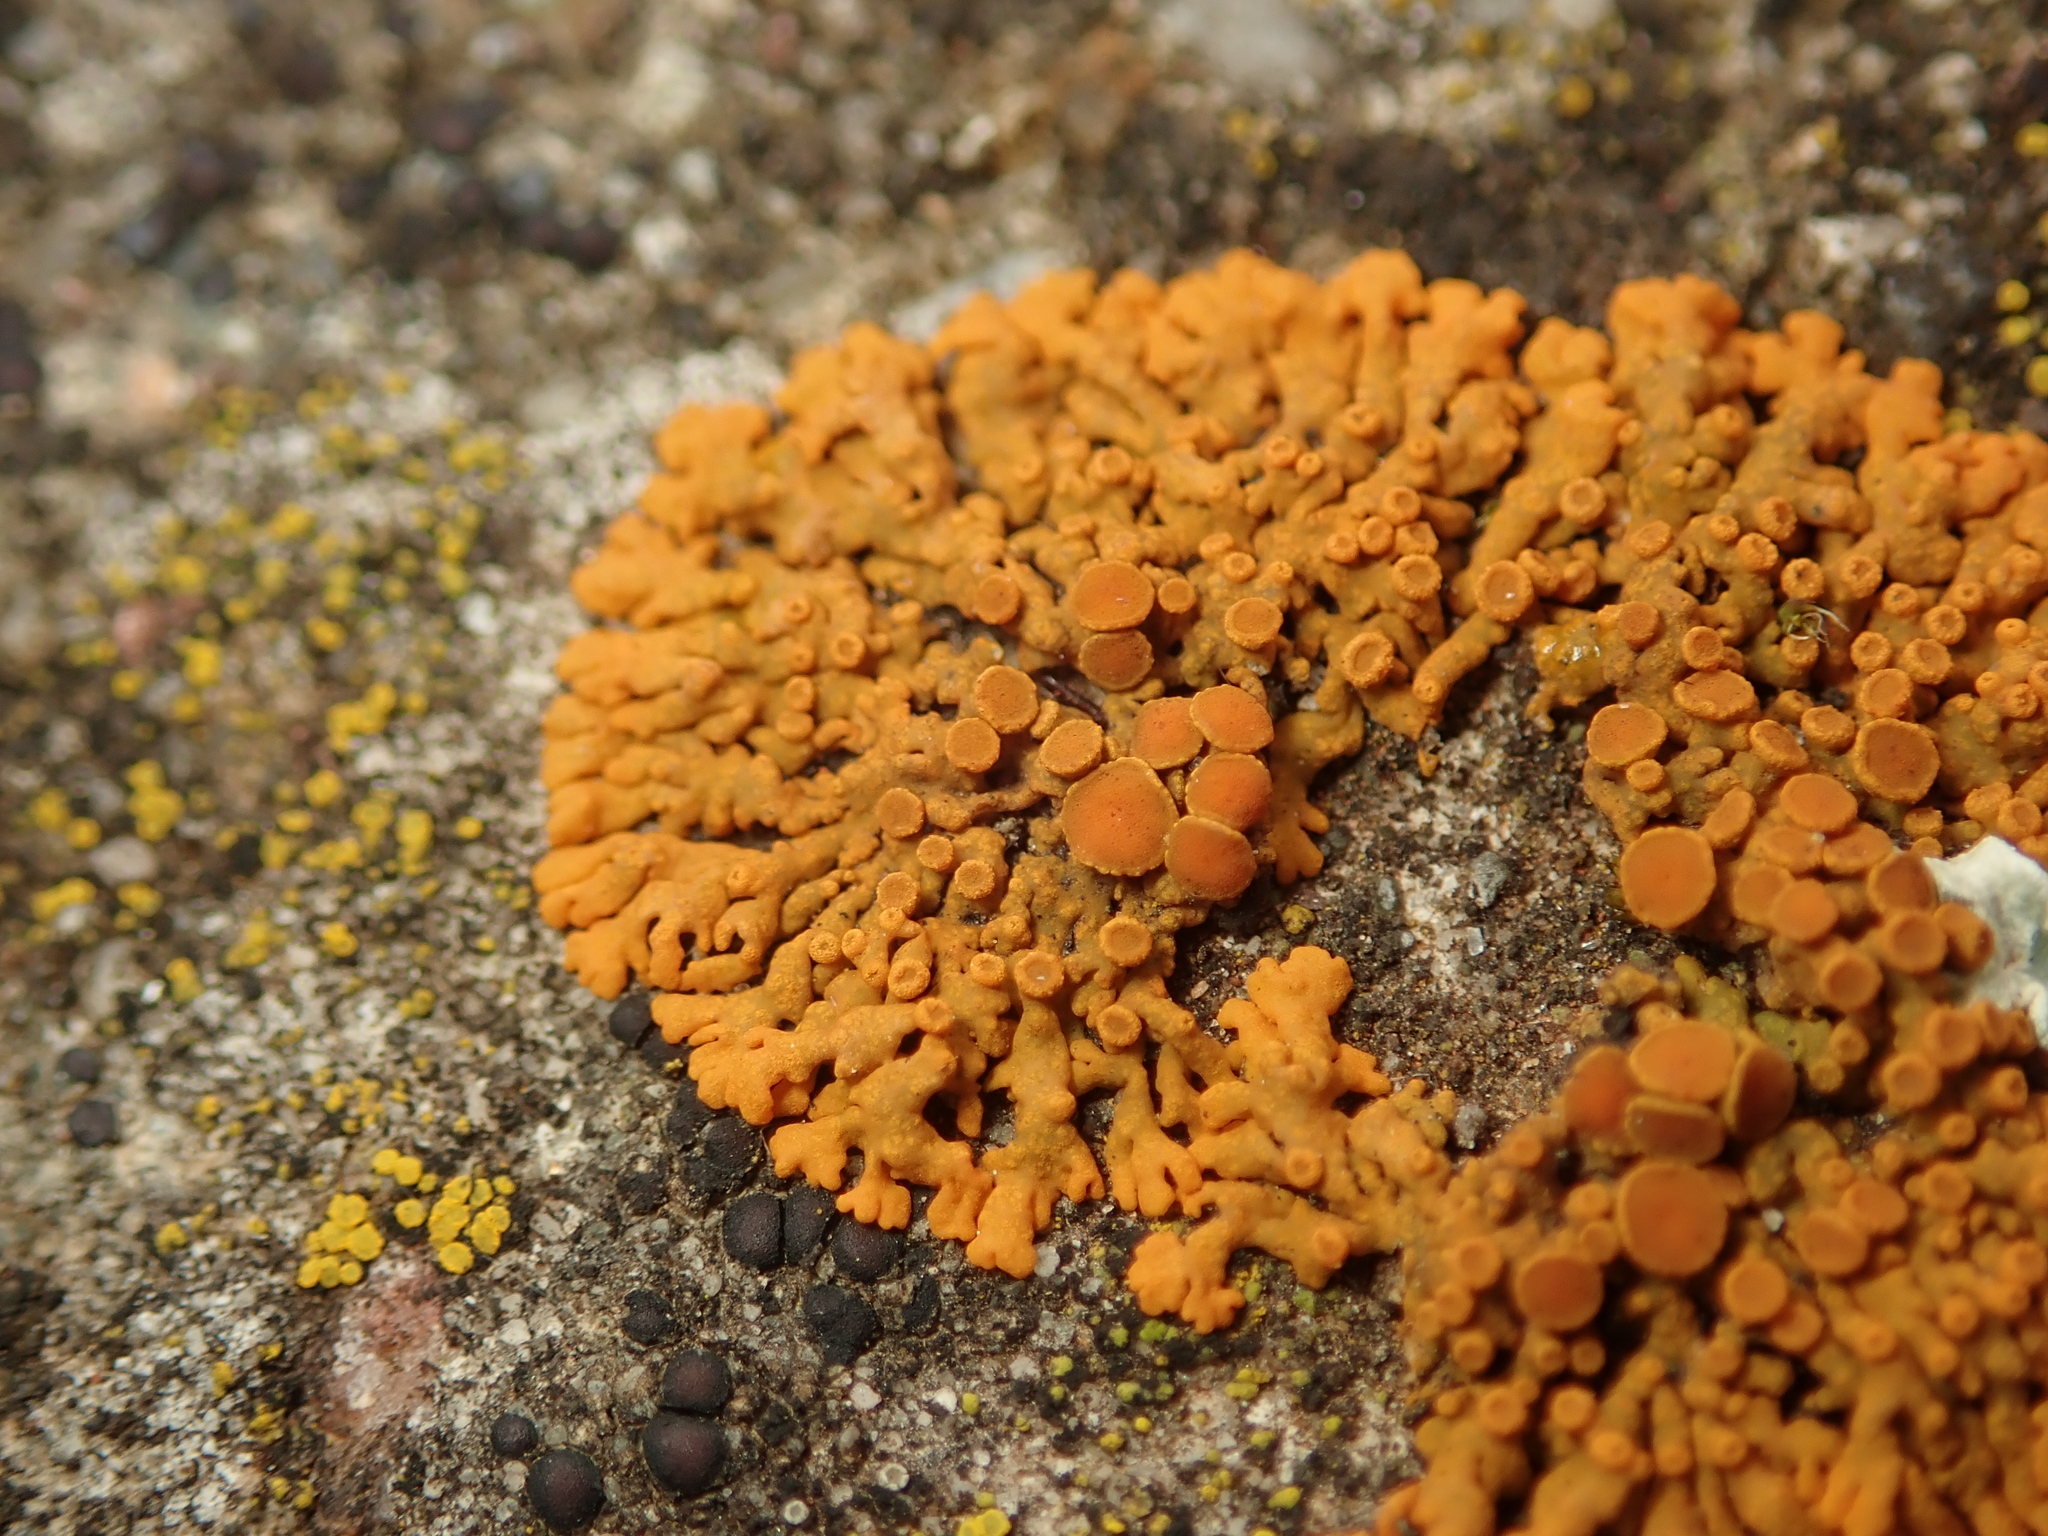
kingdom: Fungi
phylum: Ascomycota
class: Lecanoromycetes
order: Teloschistales
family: Teloschistaceae
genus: Xanthoria
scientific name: Xanthoria elegans
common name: Elegant sunburst lichen
